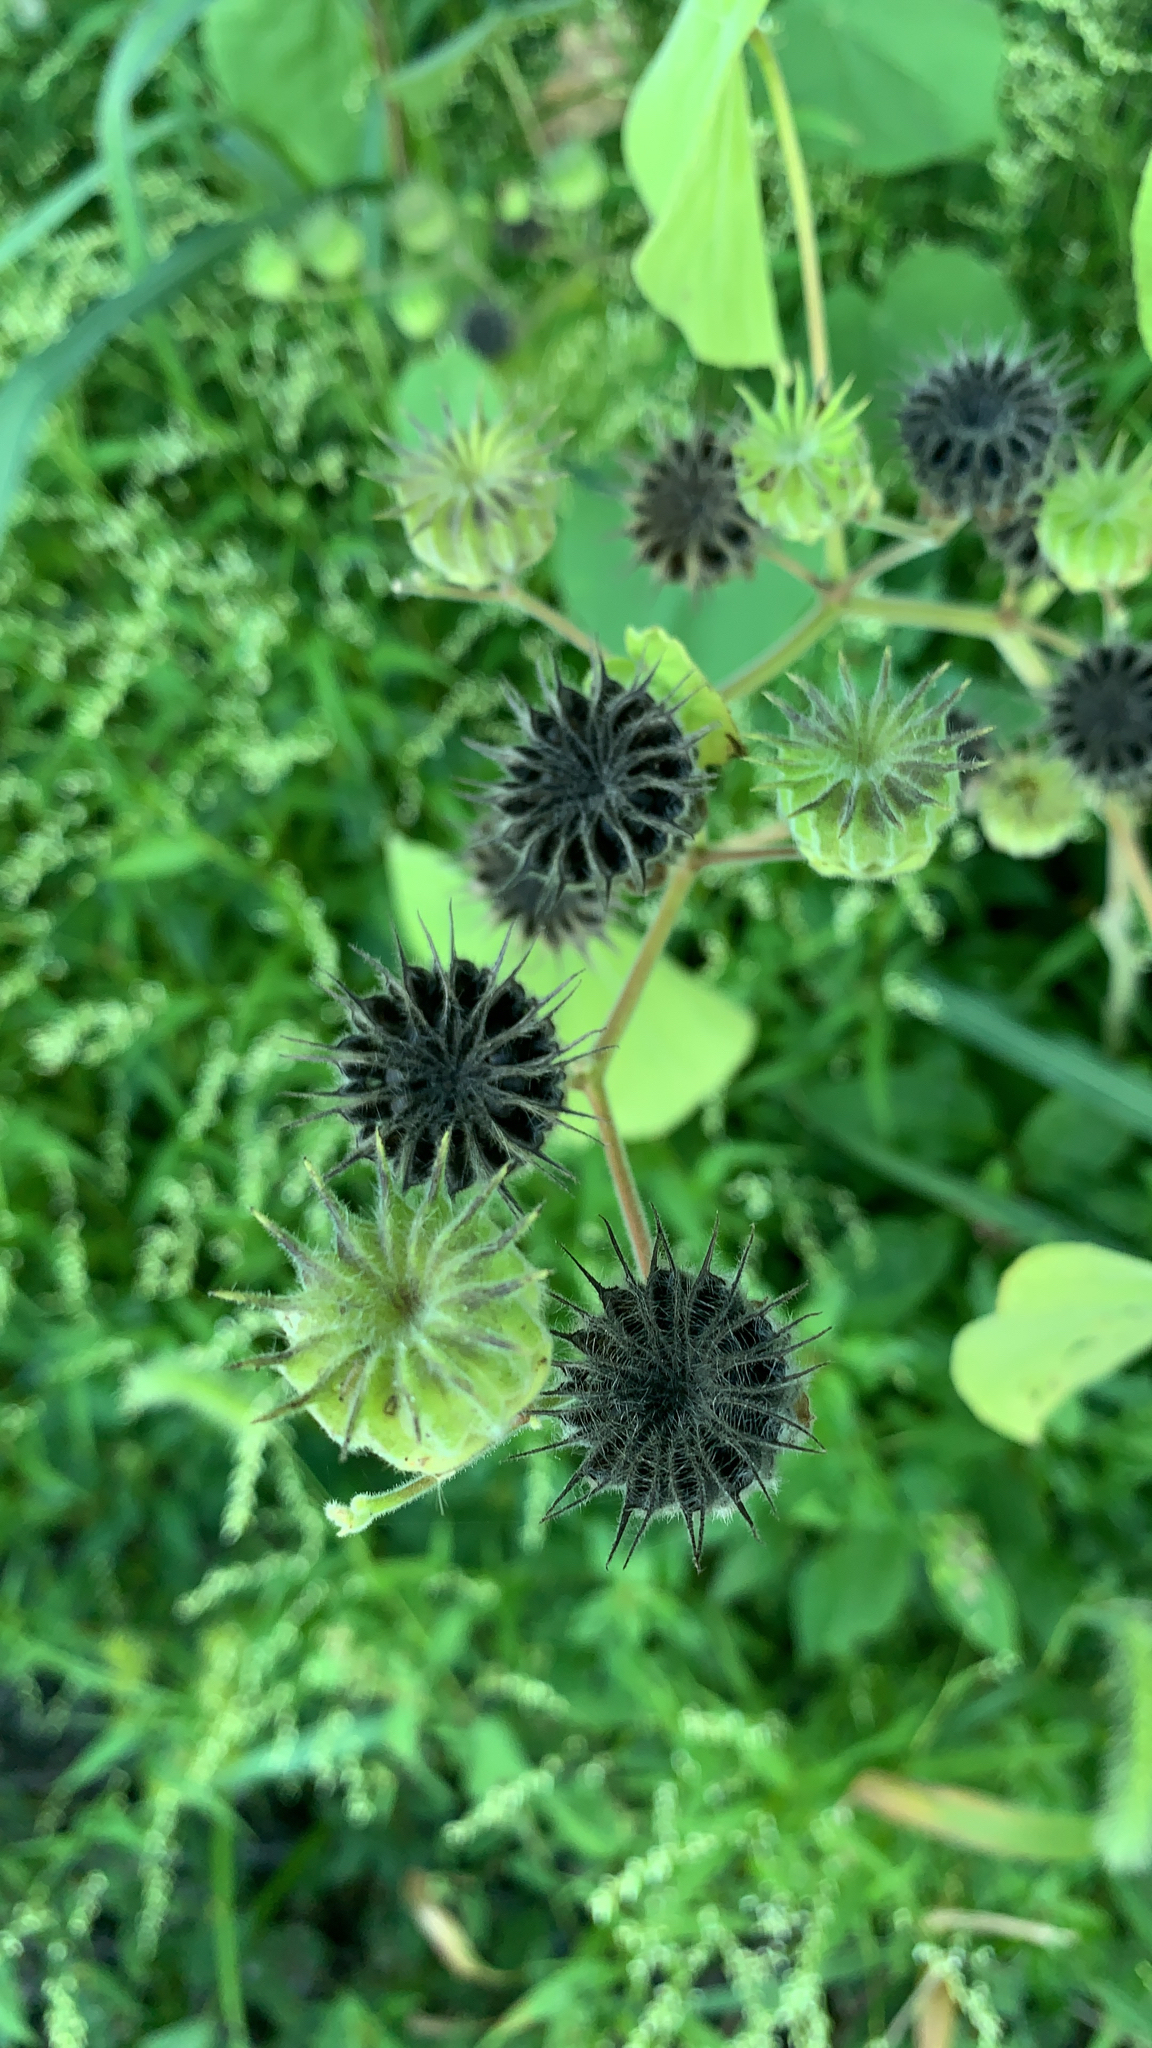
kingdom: Plantae
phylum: Tracheophyta
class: Magnoliopsida
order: Malvales
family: Malvaceae
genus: Abutilon
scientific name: Abutilon theophrasti
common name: Velvetleaf
